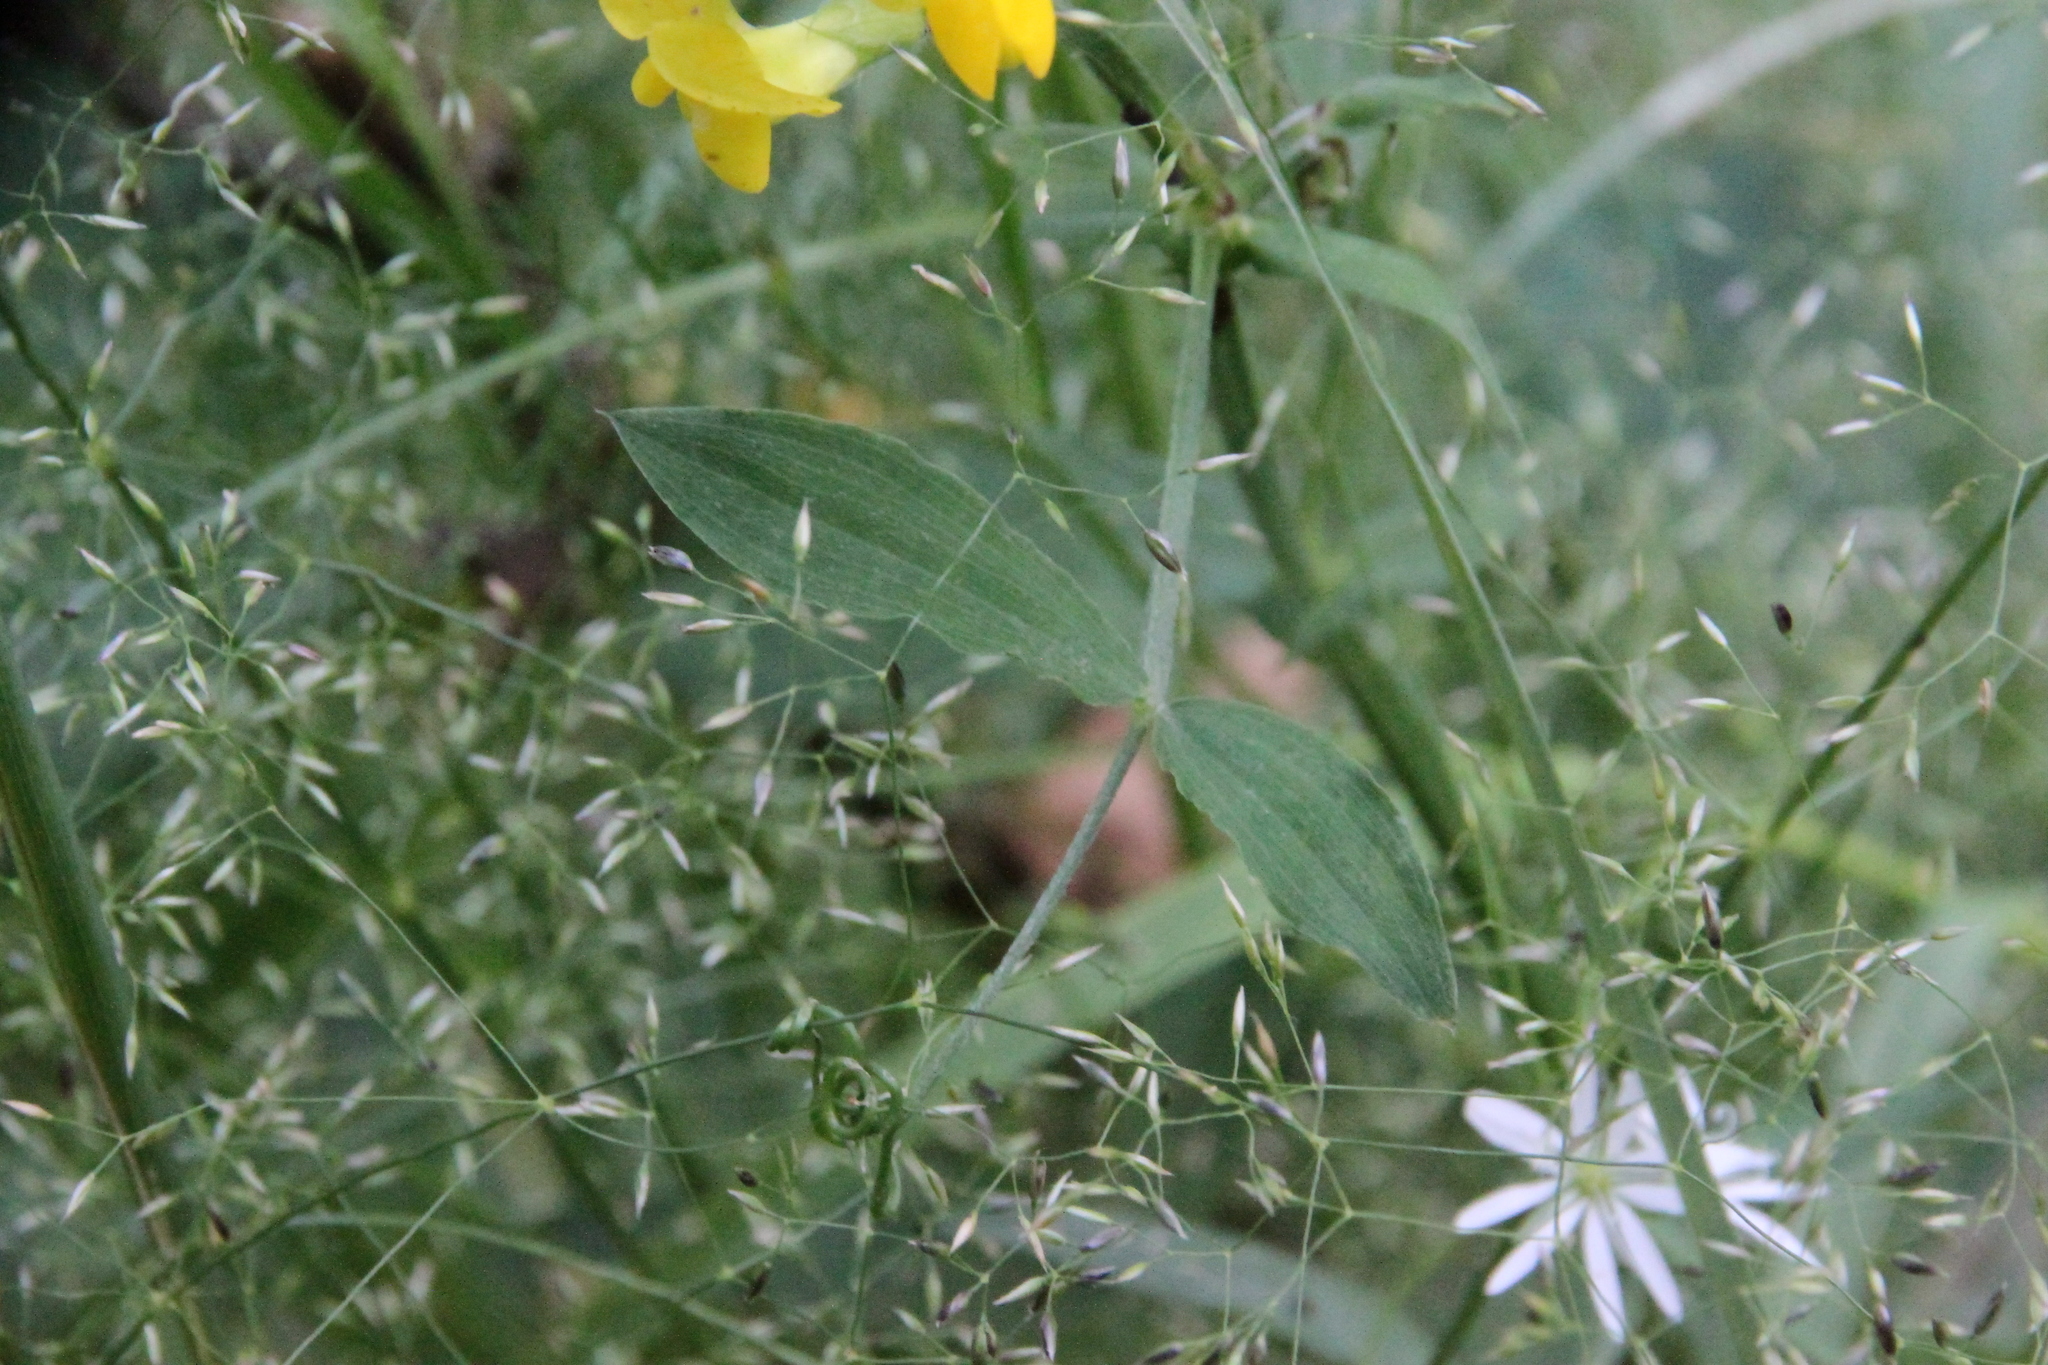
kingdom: Plantae
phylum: Tracheophyta
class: Magnoliopsida
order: Fabales
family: Fabaceae
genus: Lathyrus
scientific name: Lathyrus pratensis
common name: Meadow vetchling
